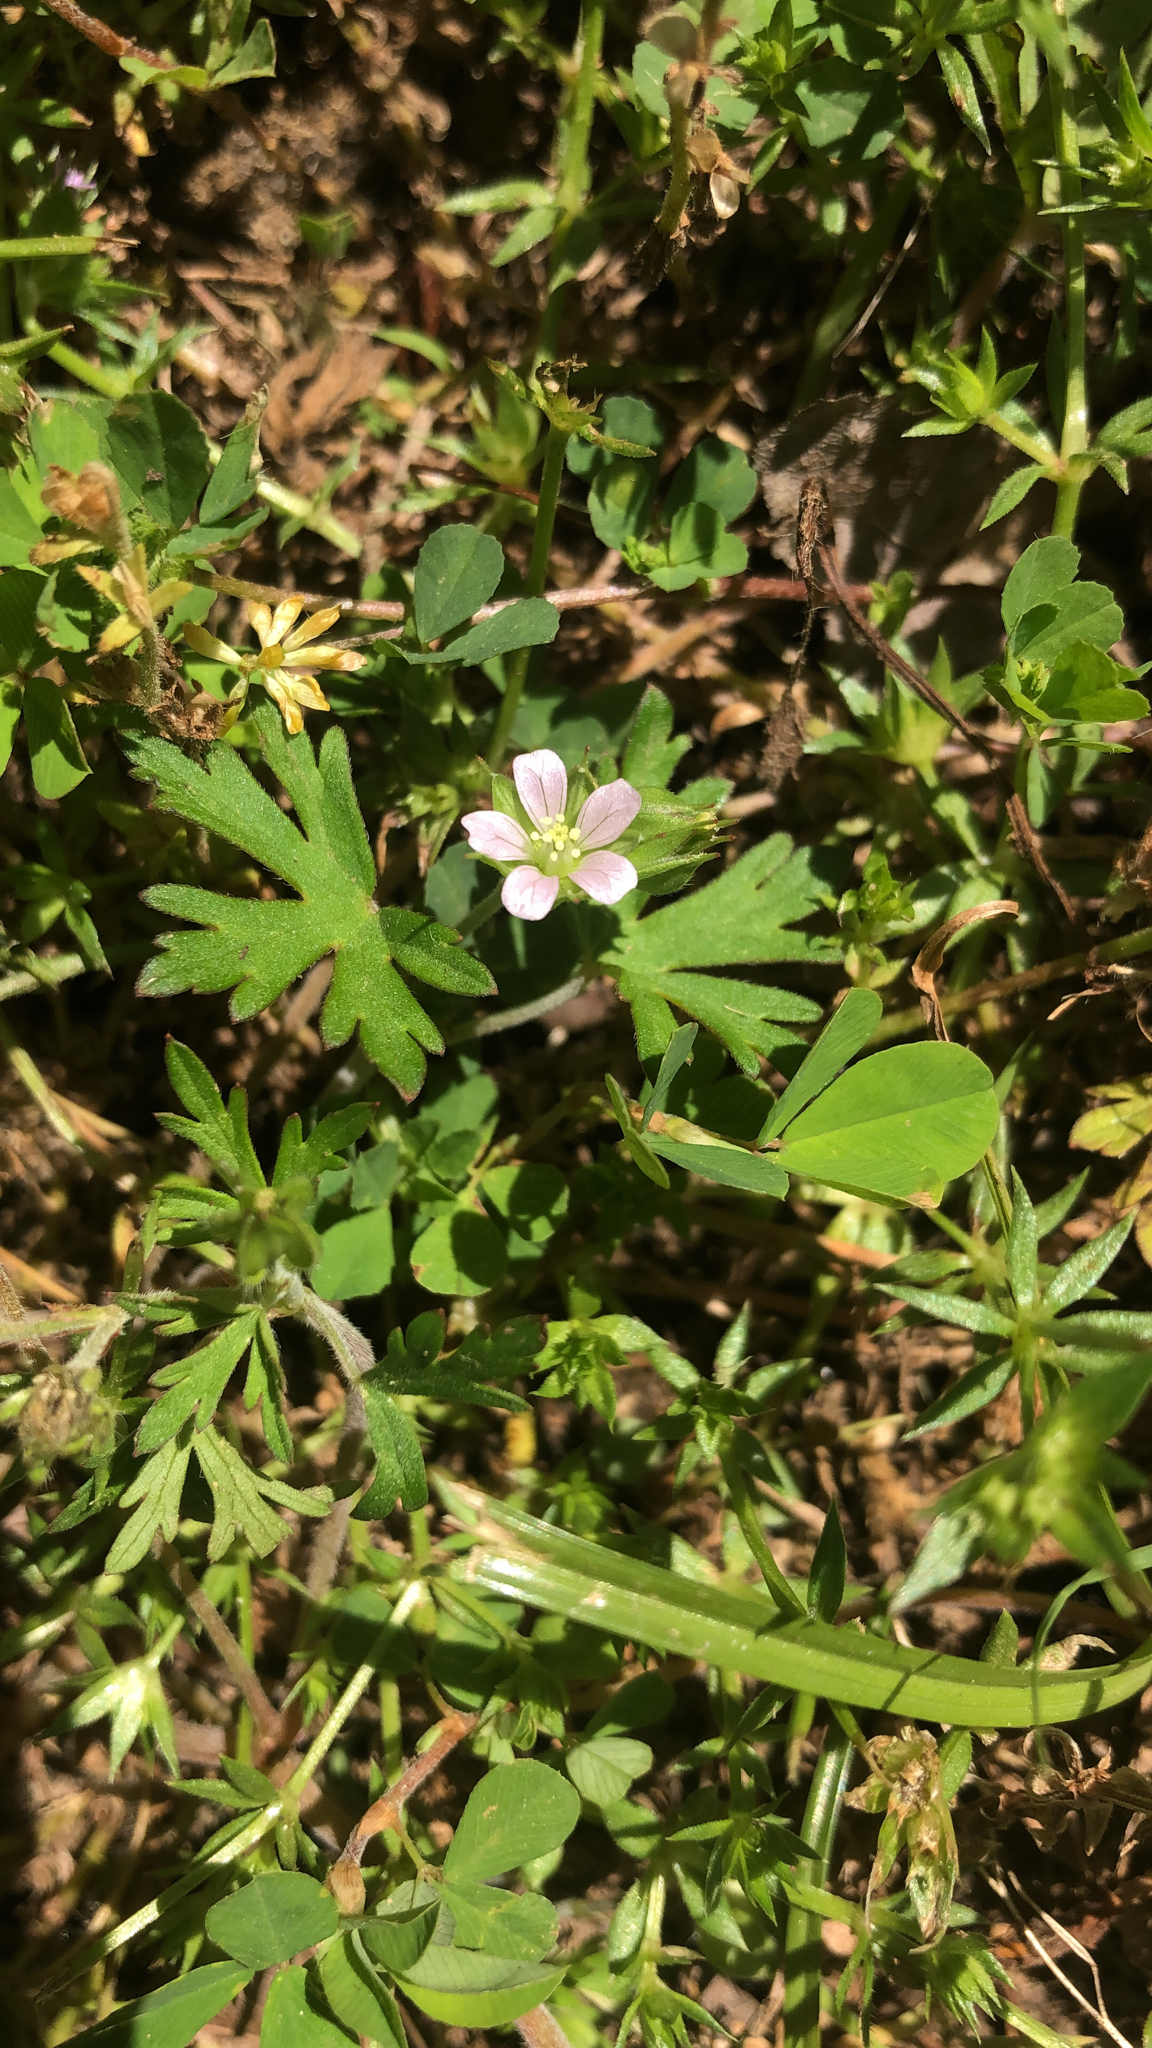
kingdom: Plantae
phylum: Tracheophyta
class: Magnoliopsida
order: Geraniales
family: Geraniaceae
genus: Geranium
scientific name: Geranium carolinianum
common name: Carolina crane's-bill
